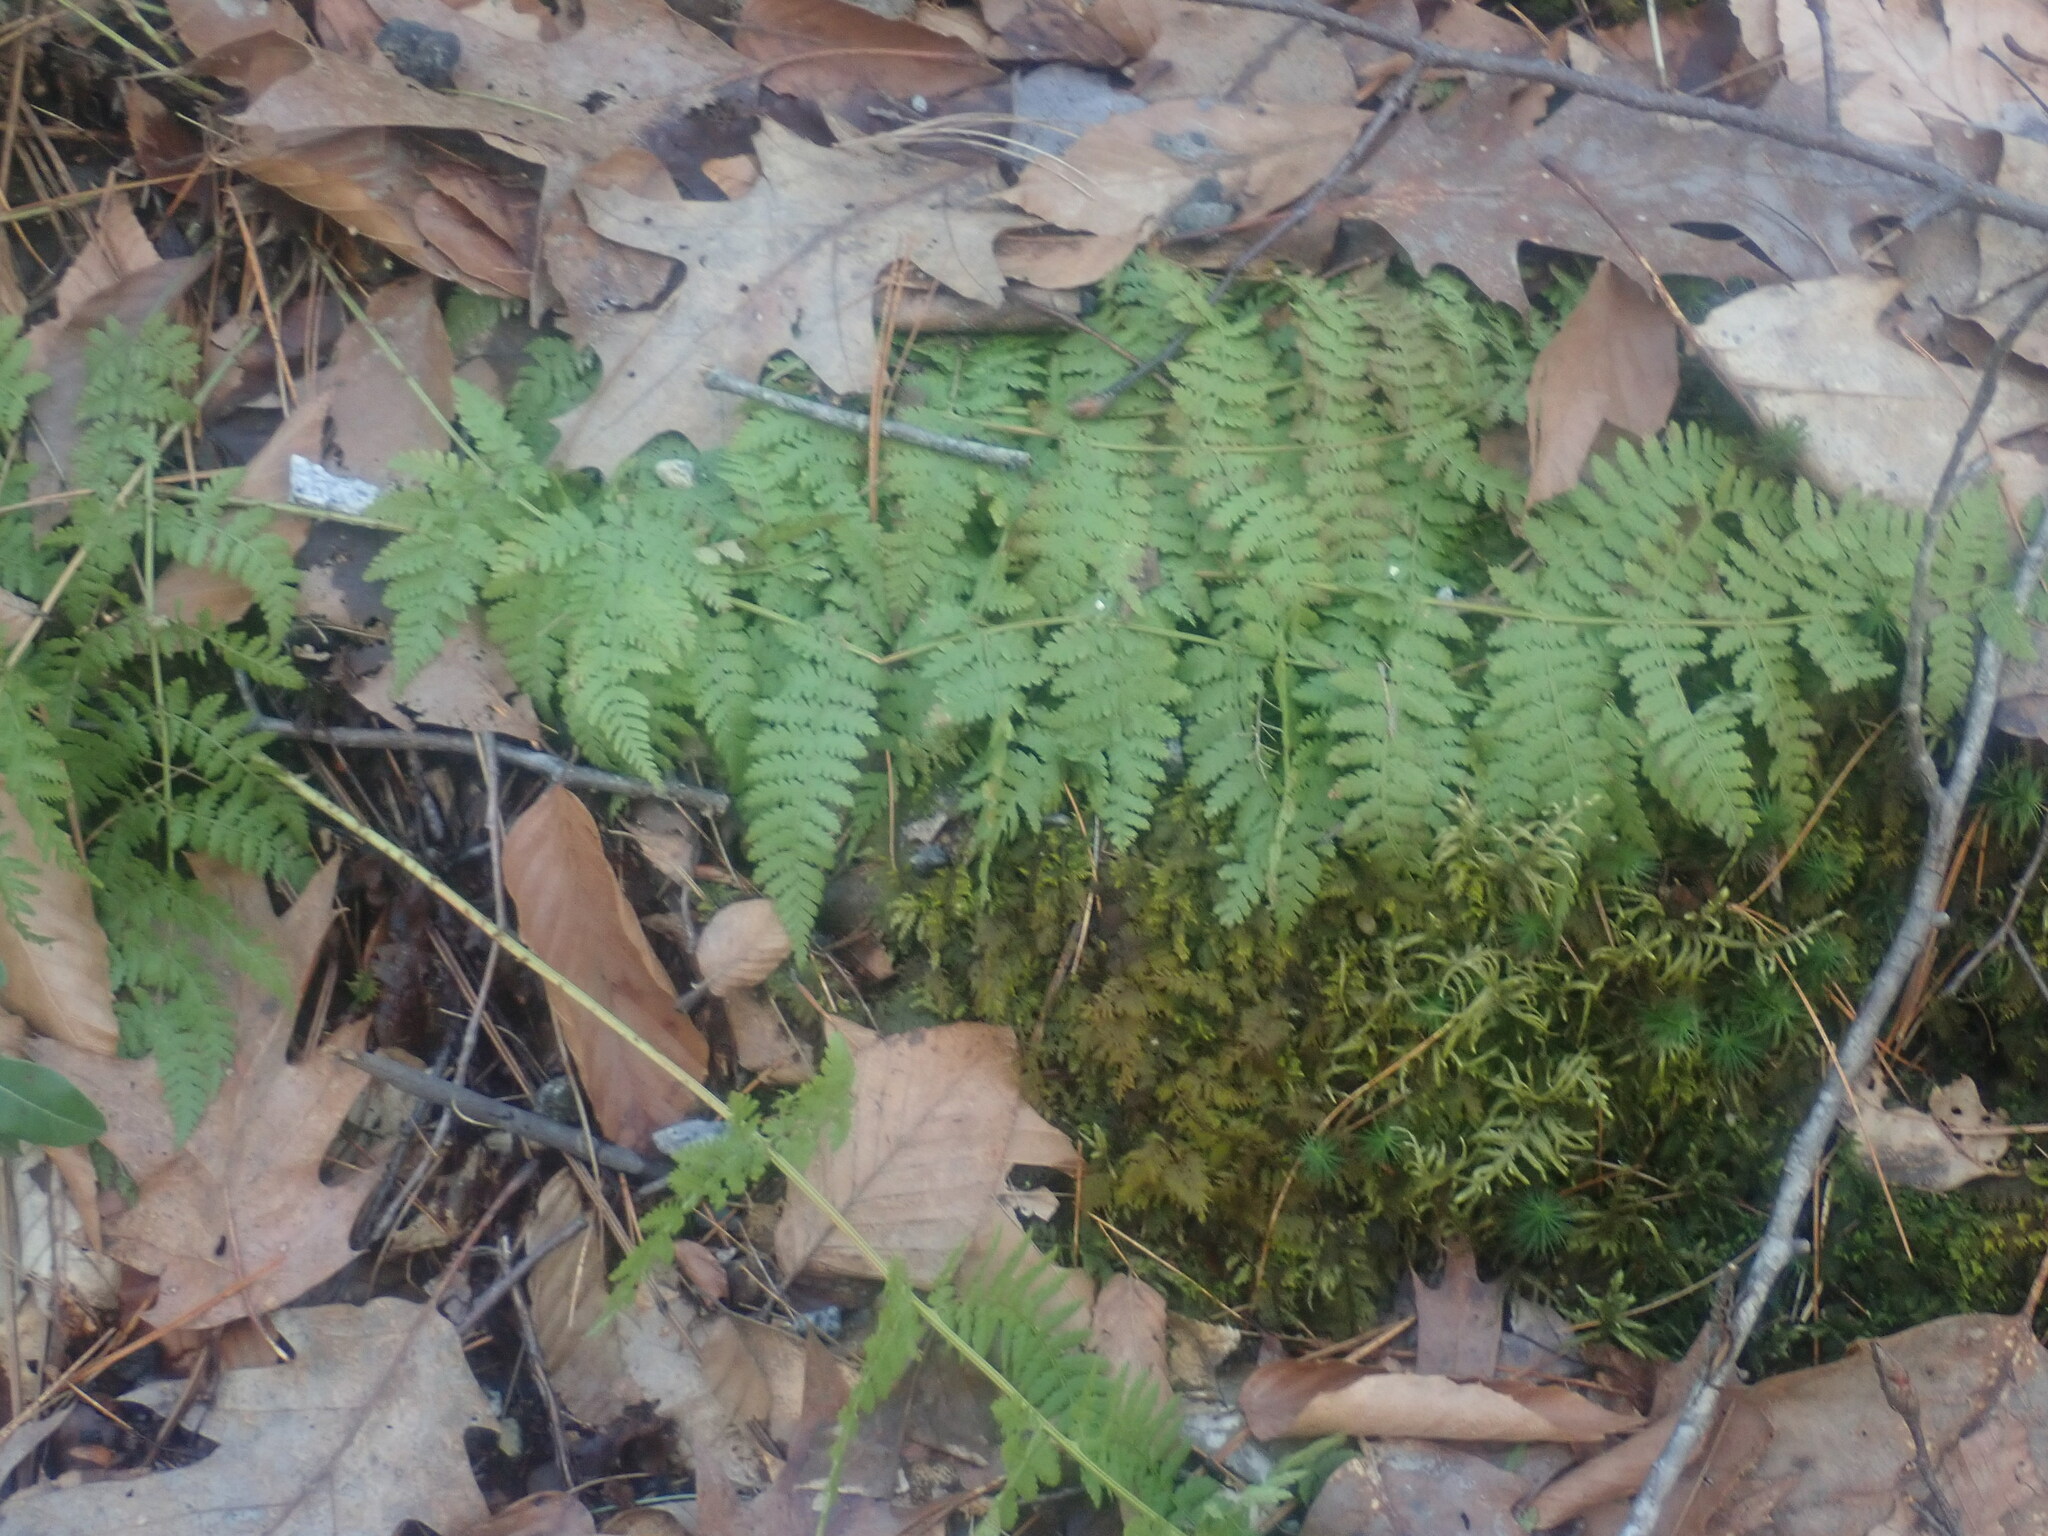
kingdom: Plantae
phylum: Tracheophyta
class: Polypodiopsida
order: Polypodiales
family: Dryopteridaceae
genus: Dryopteris
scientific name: Dryopteris intermedia
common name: Evergreen wood fern
